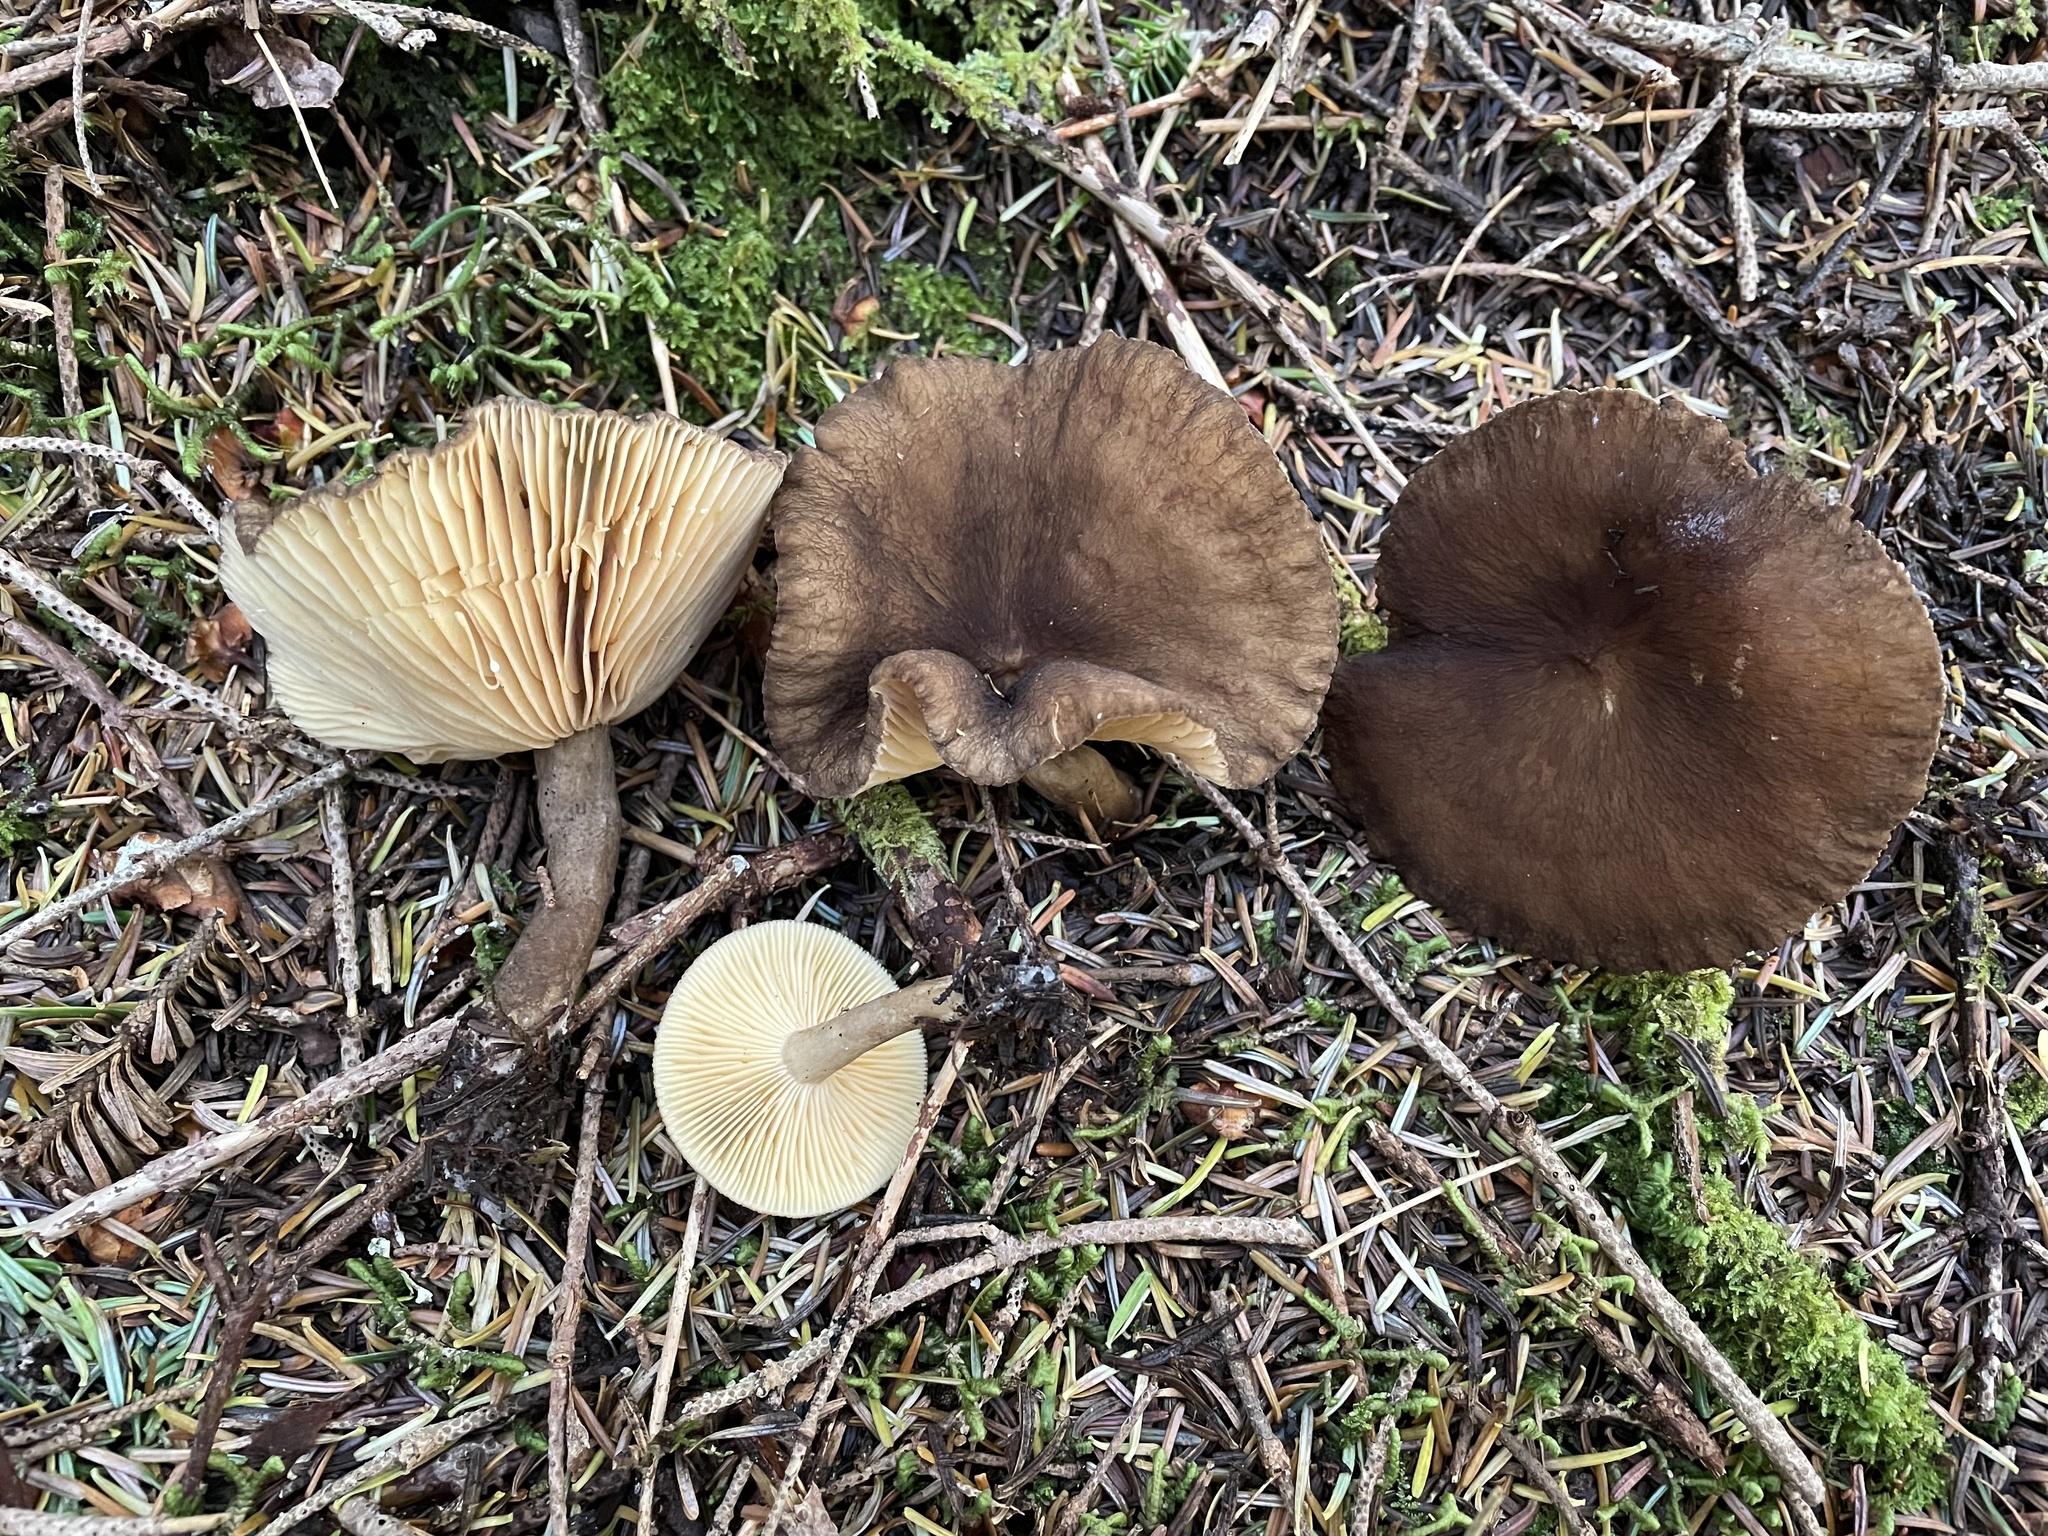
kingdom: Fungi
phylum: Basidiomycota
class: Agaricomycetes
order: Russulales
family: Russulaceae
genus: Lactarius
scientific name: Lactarius lignyotellus
